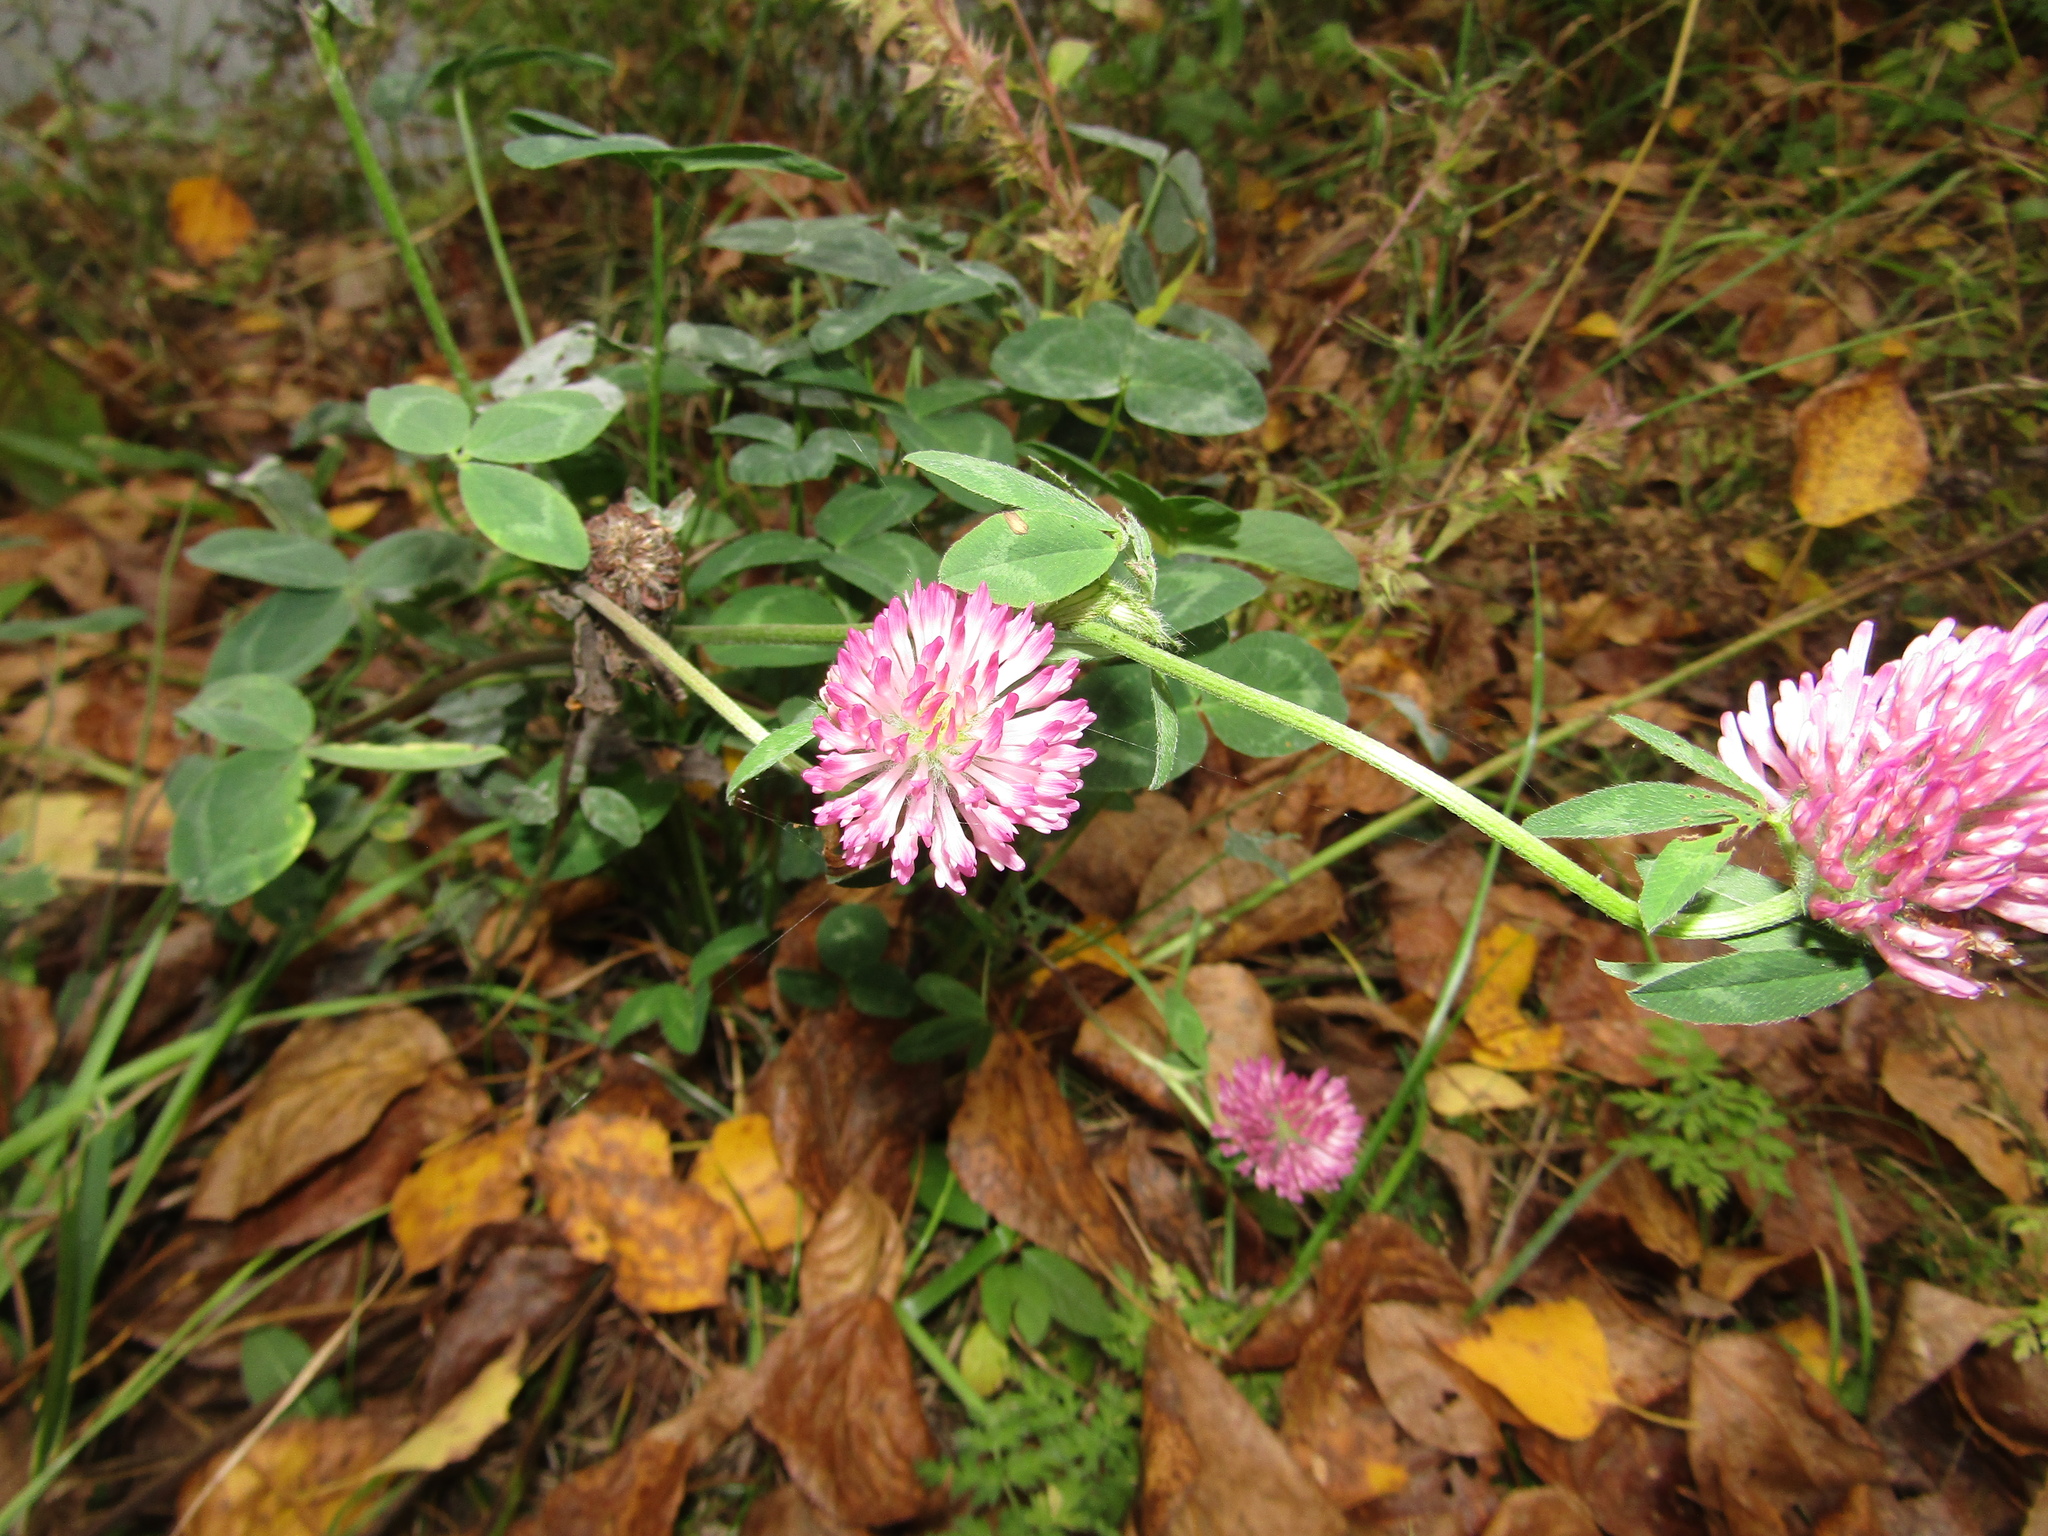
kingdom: Plantae
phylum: Tracheophyta
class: Magnoliopsida
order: Fabales
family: Fabaceae
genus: Trifolium
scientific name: Trifolium pratense
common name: Red clover
